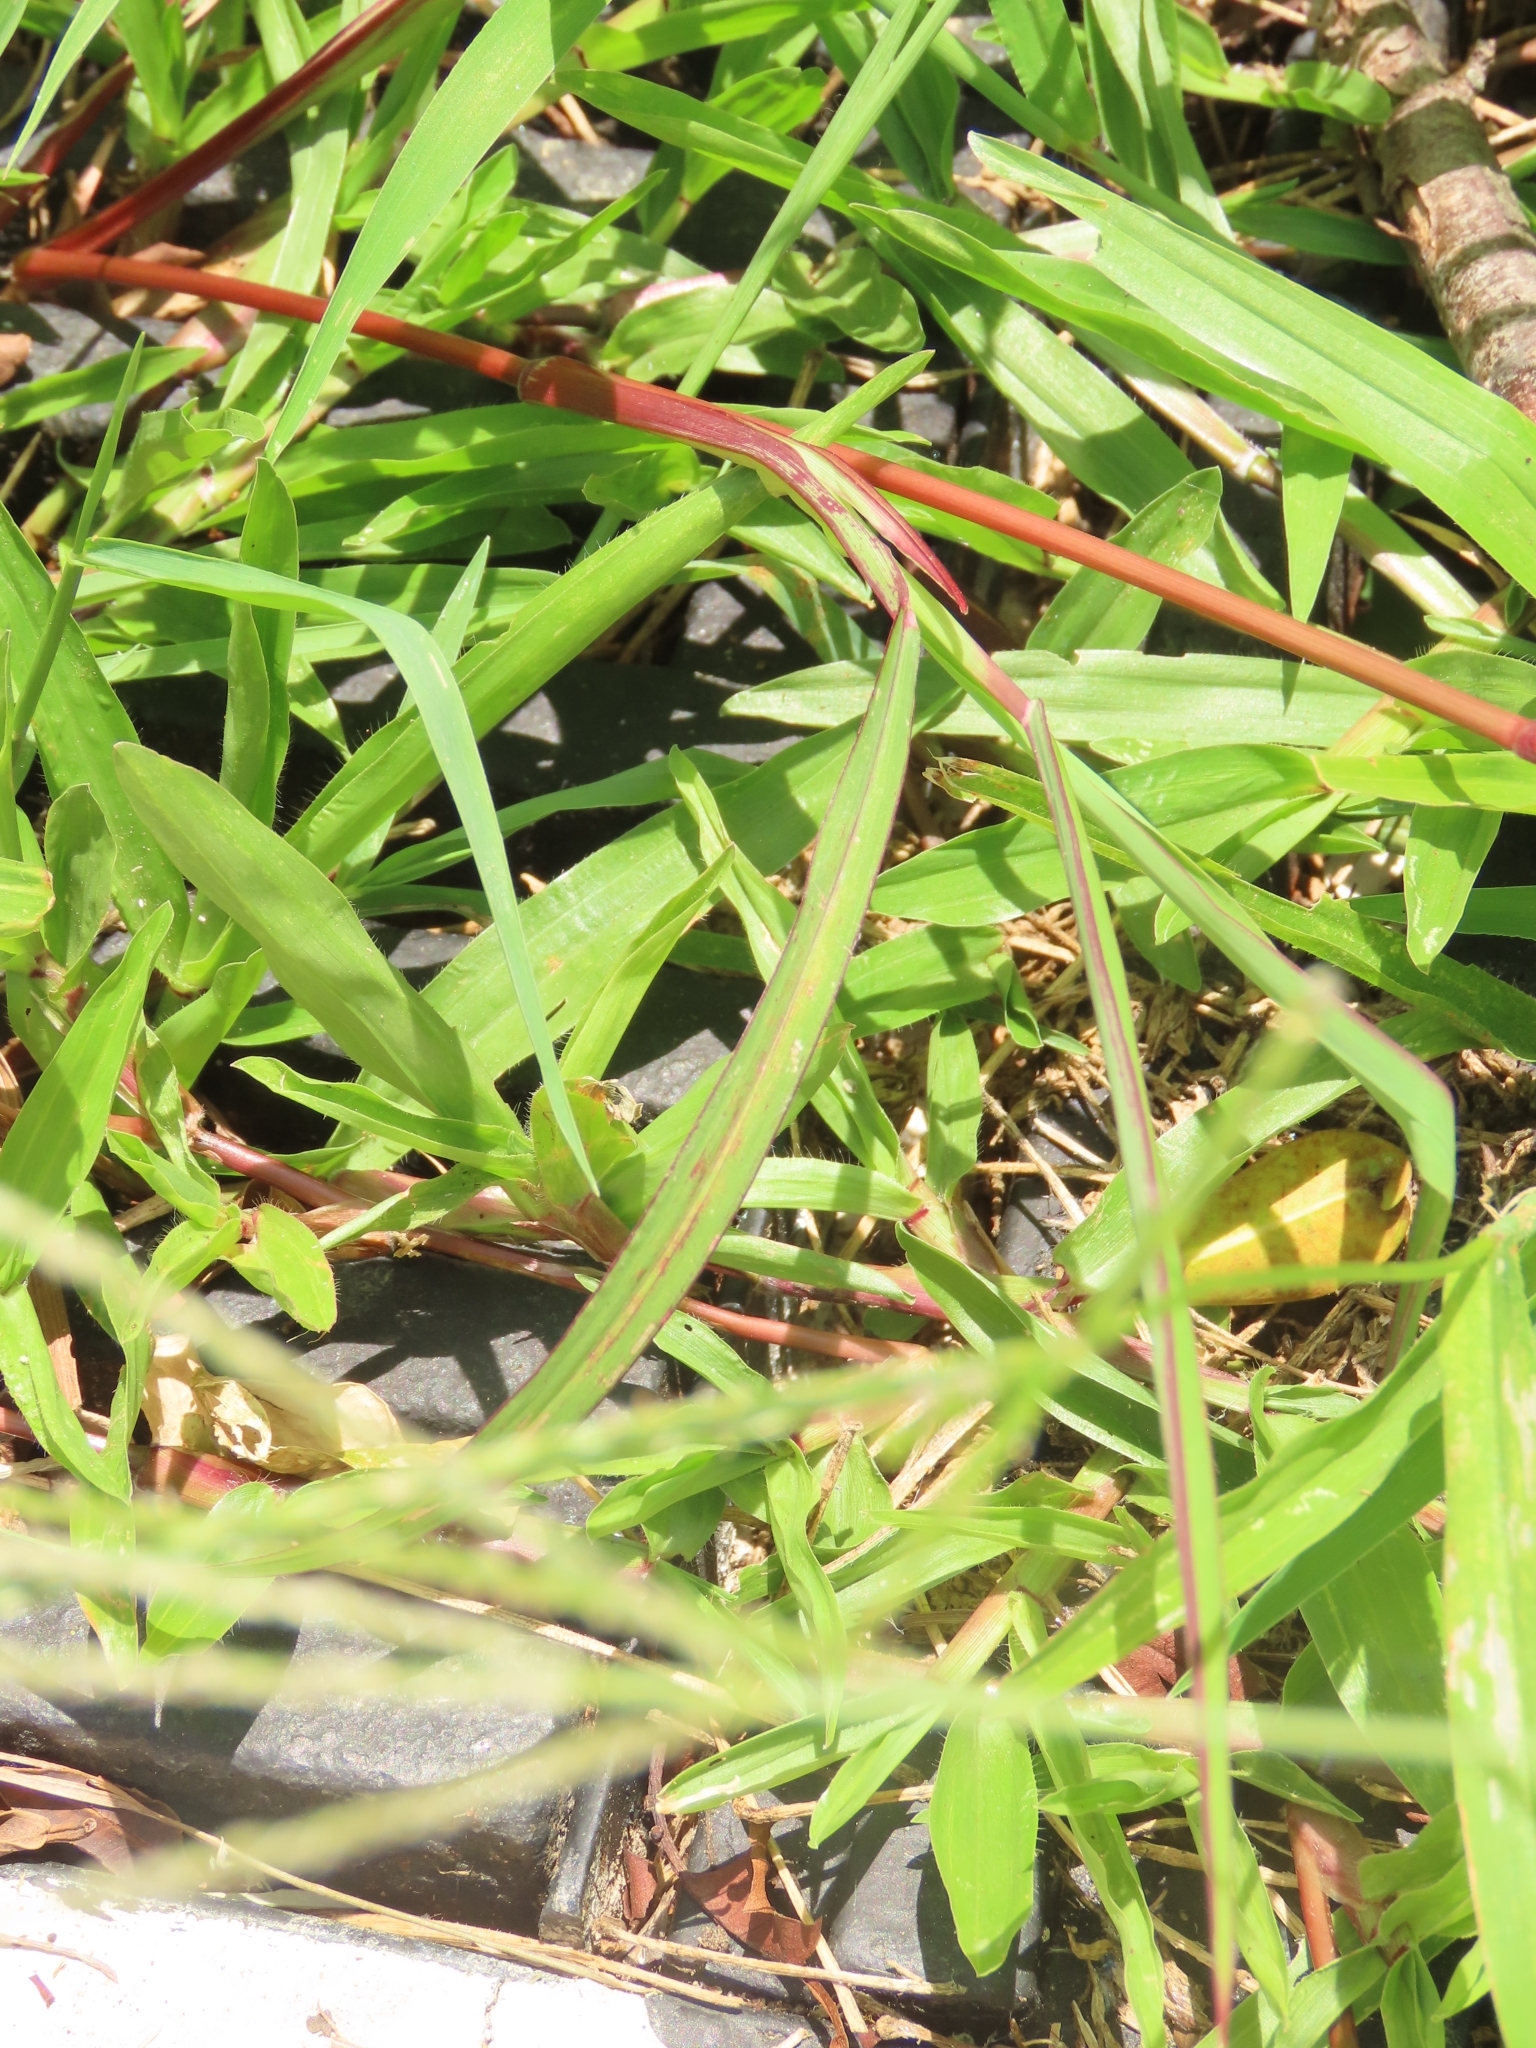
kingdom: Plantae
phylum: Tracheophyta
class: Liliopsida
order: Poales
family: Poaceae
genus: Echinochloa
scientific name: Echinochloa colonum
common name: Jungle rice
